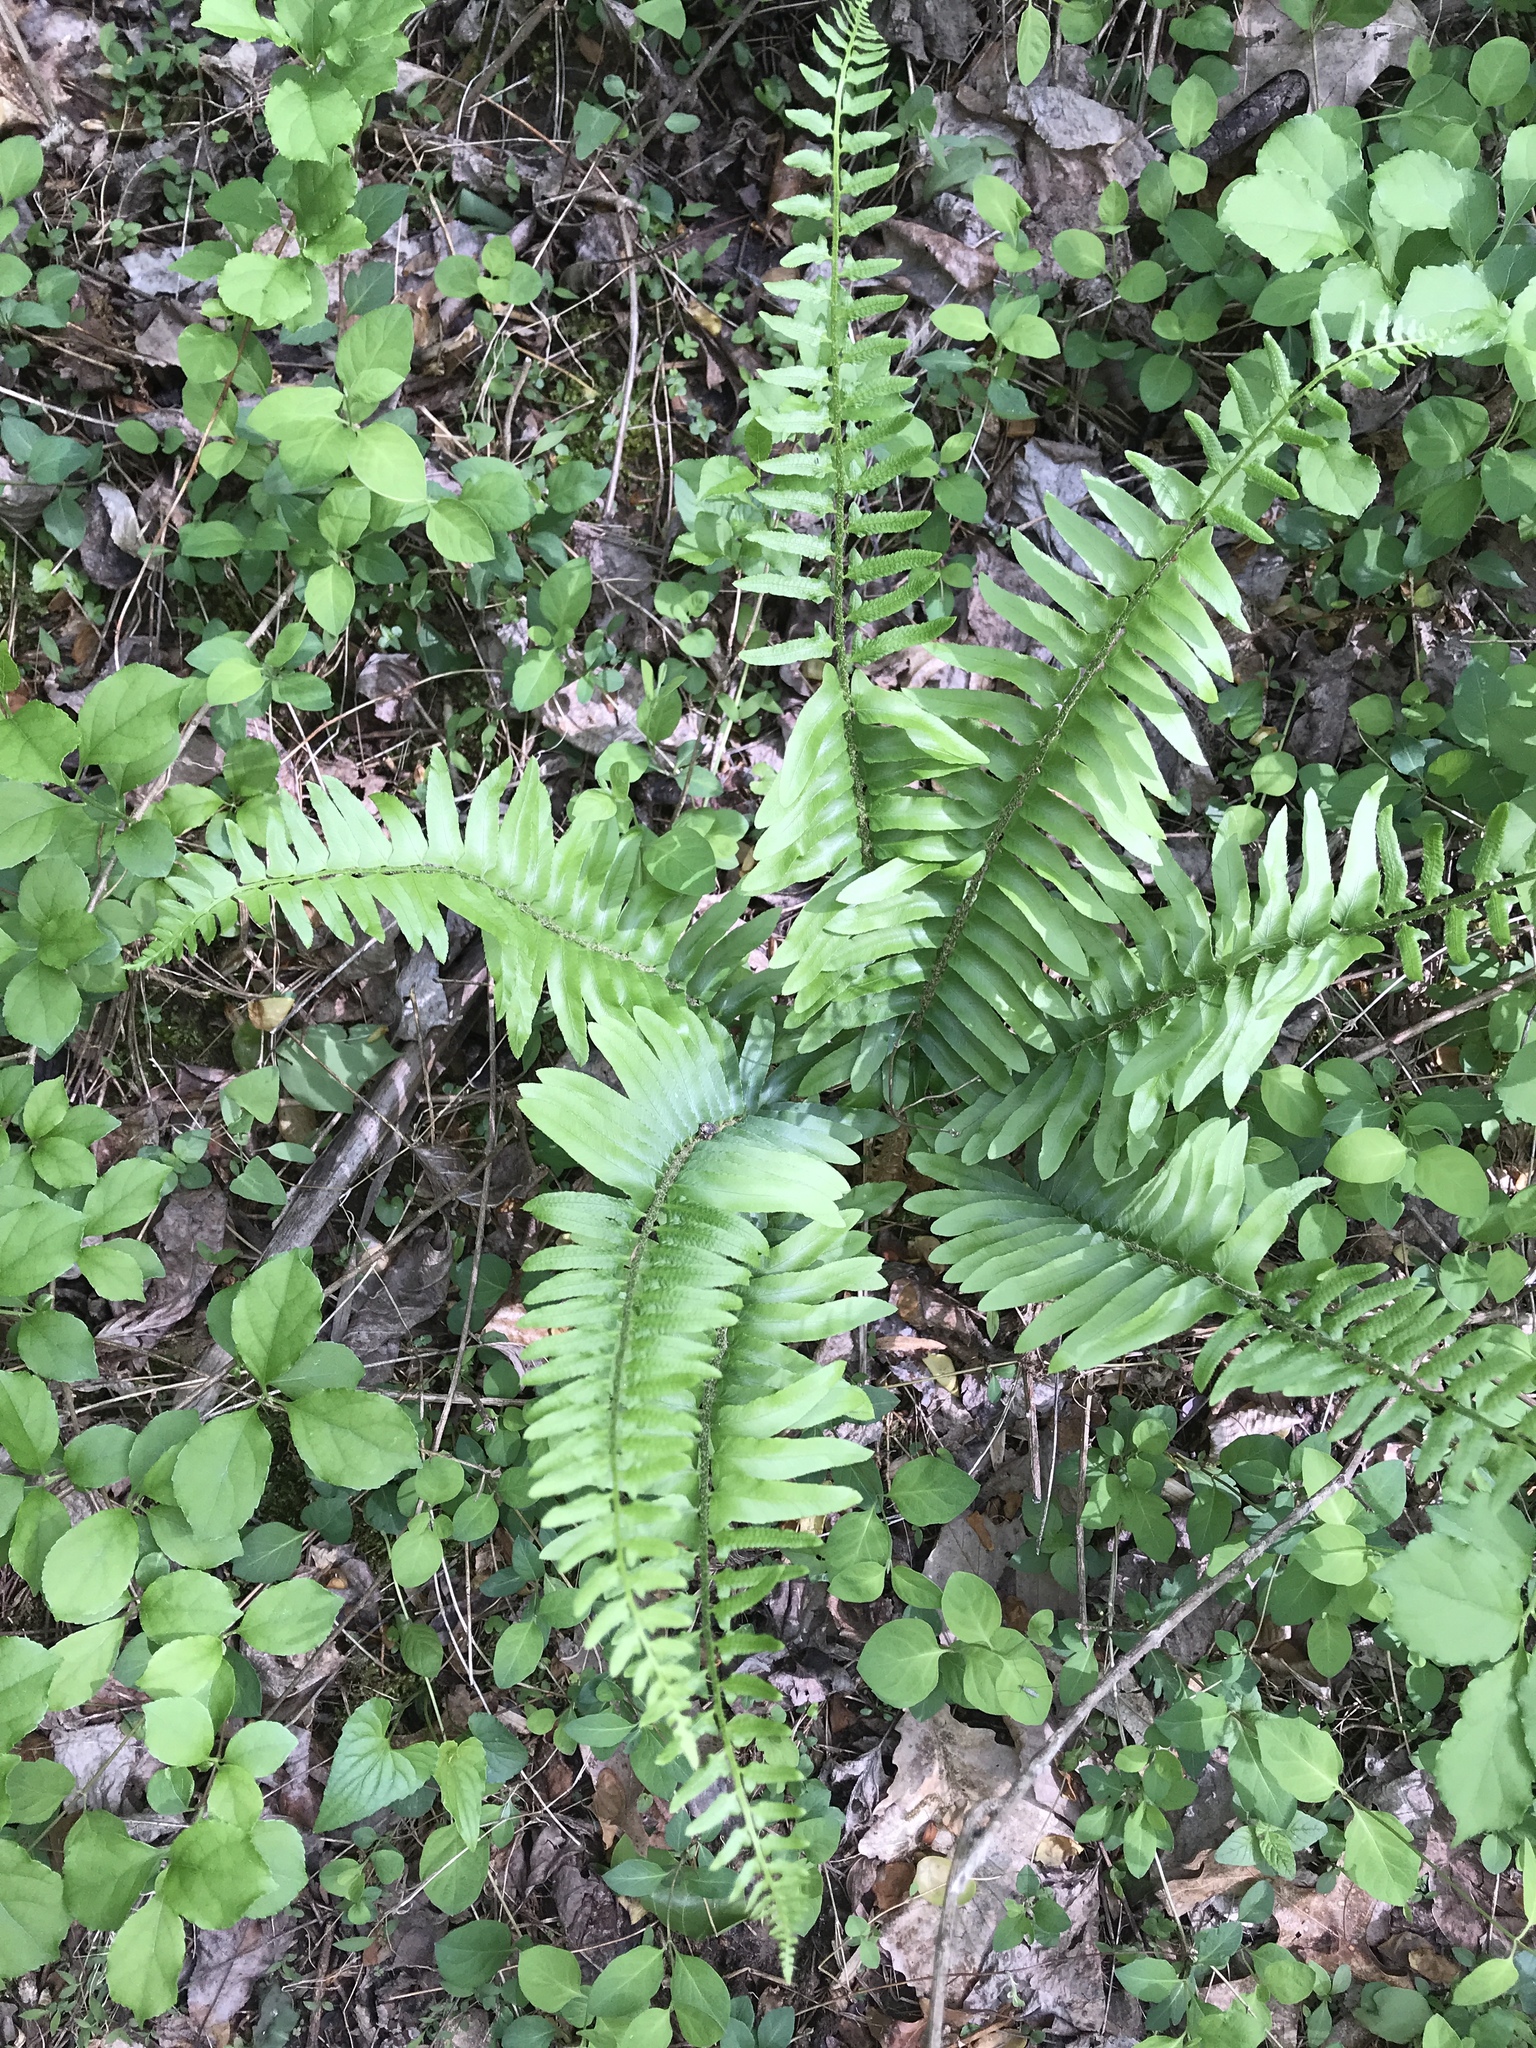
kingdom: Plantae
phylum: Tracheophyta
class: Polypodiopsida
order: Polypodiales
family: Dryopteridaceae
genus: Polystichum
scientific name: Polystichum acrostichoides
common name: Christmas fern
